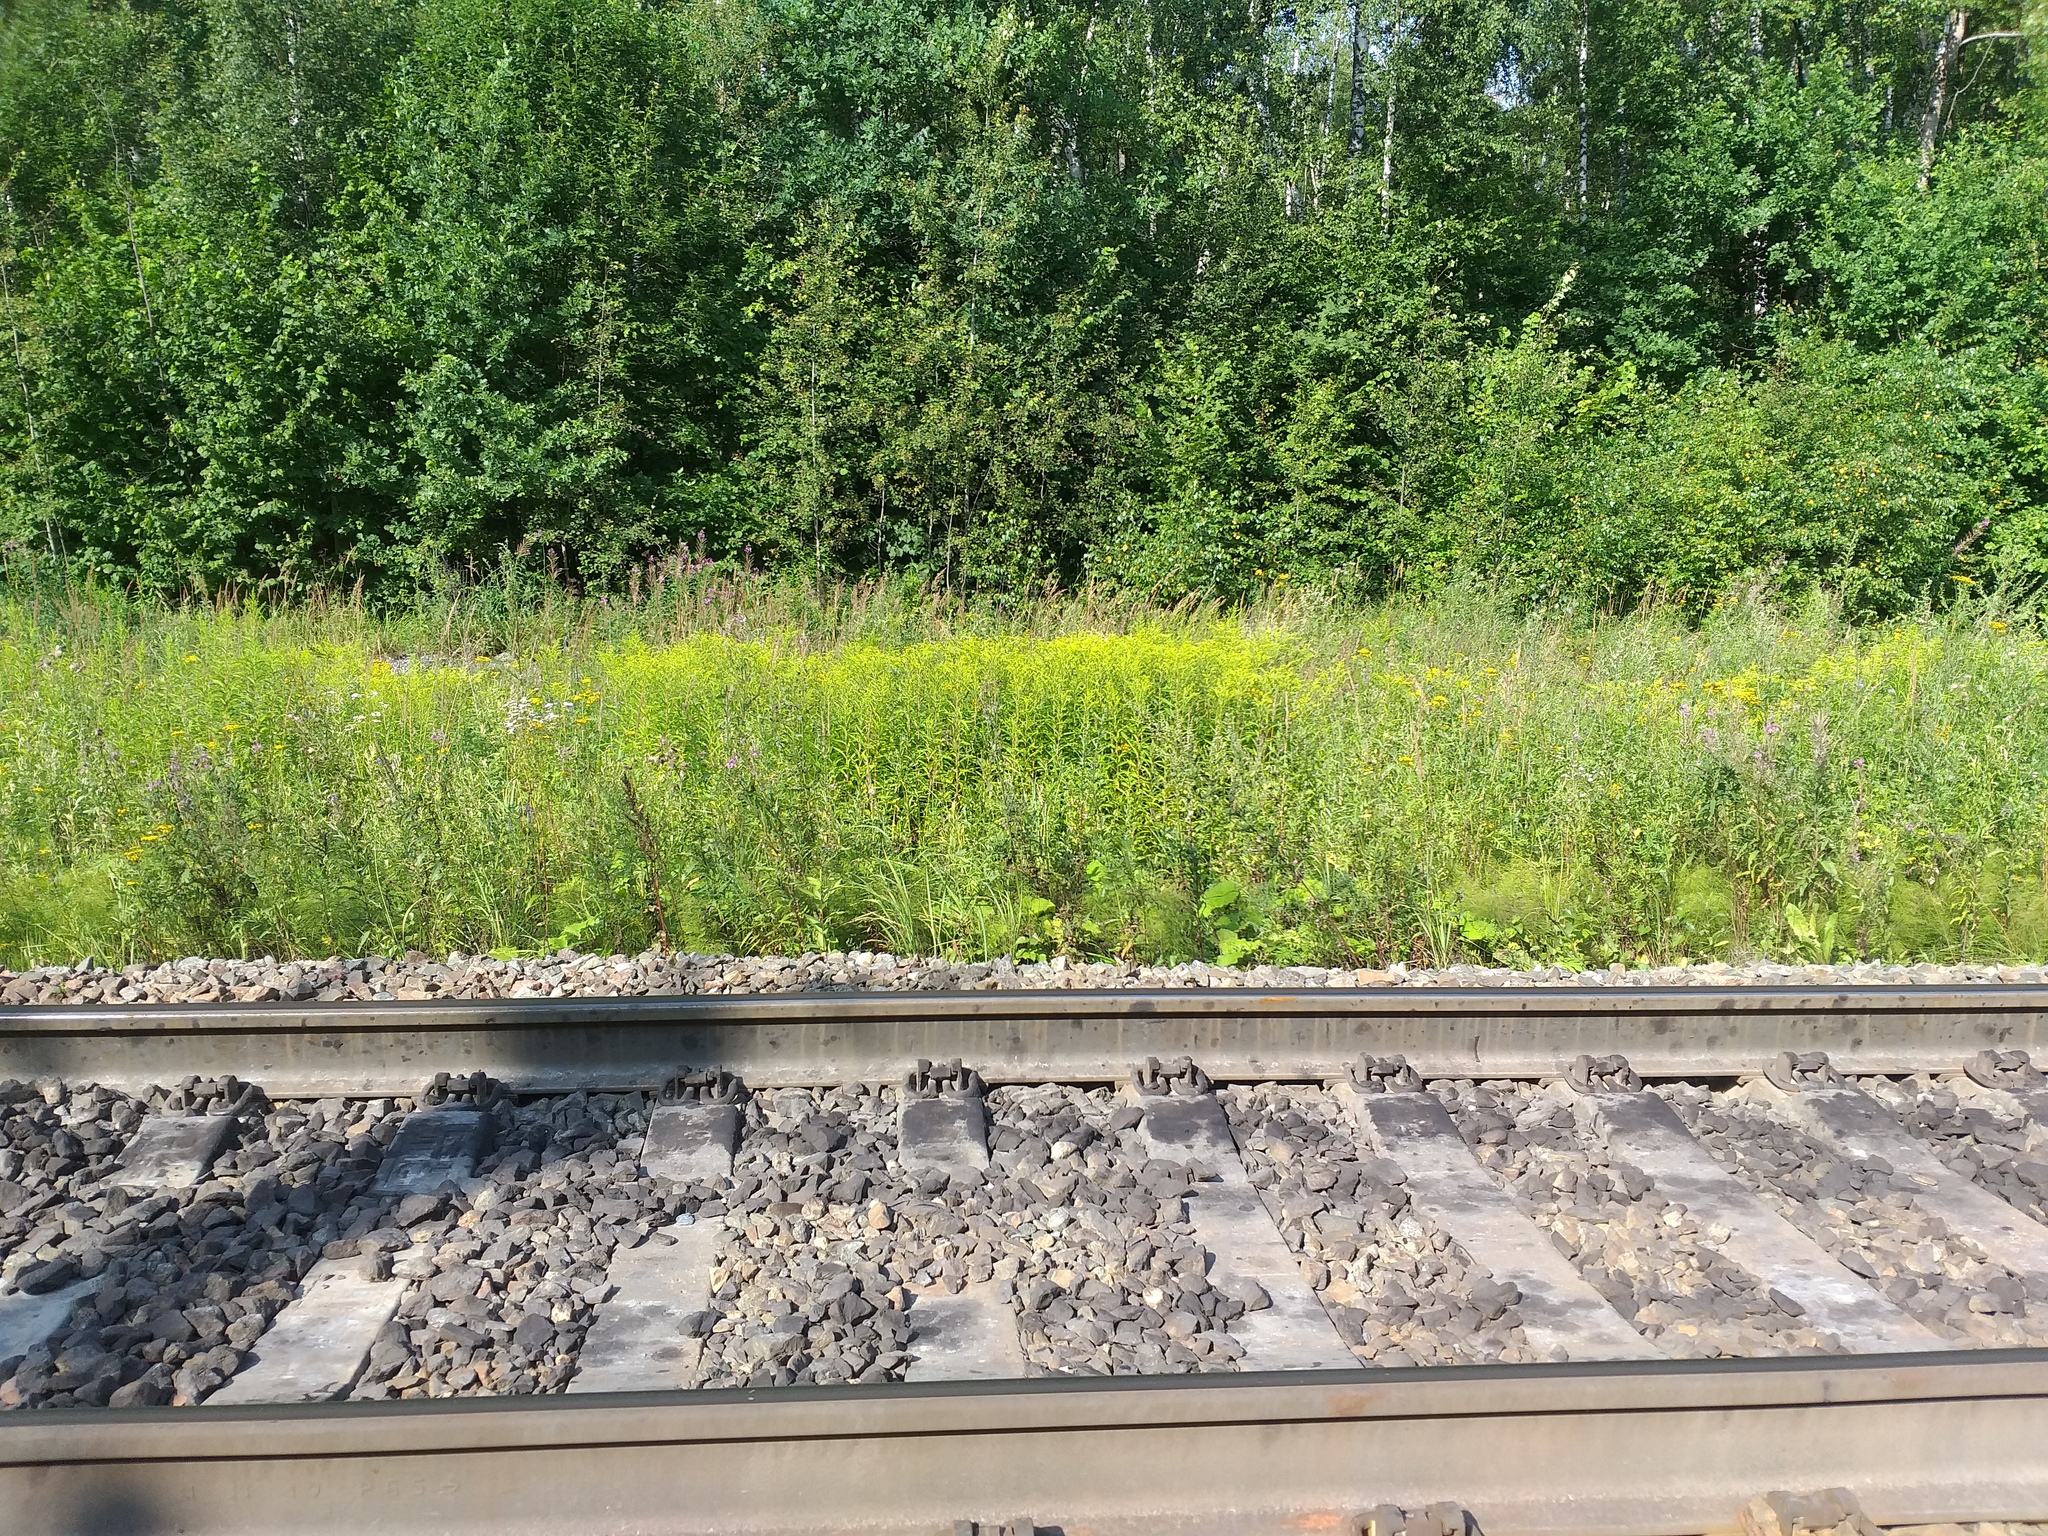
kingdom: Plantae
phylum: Tracheophyta
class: Magnoliopsida
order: Asterales
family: Asteraceae
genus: Solidago
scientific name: Solidago gigantea
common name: Giant goldenrod
